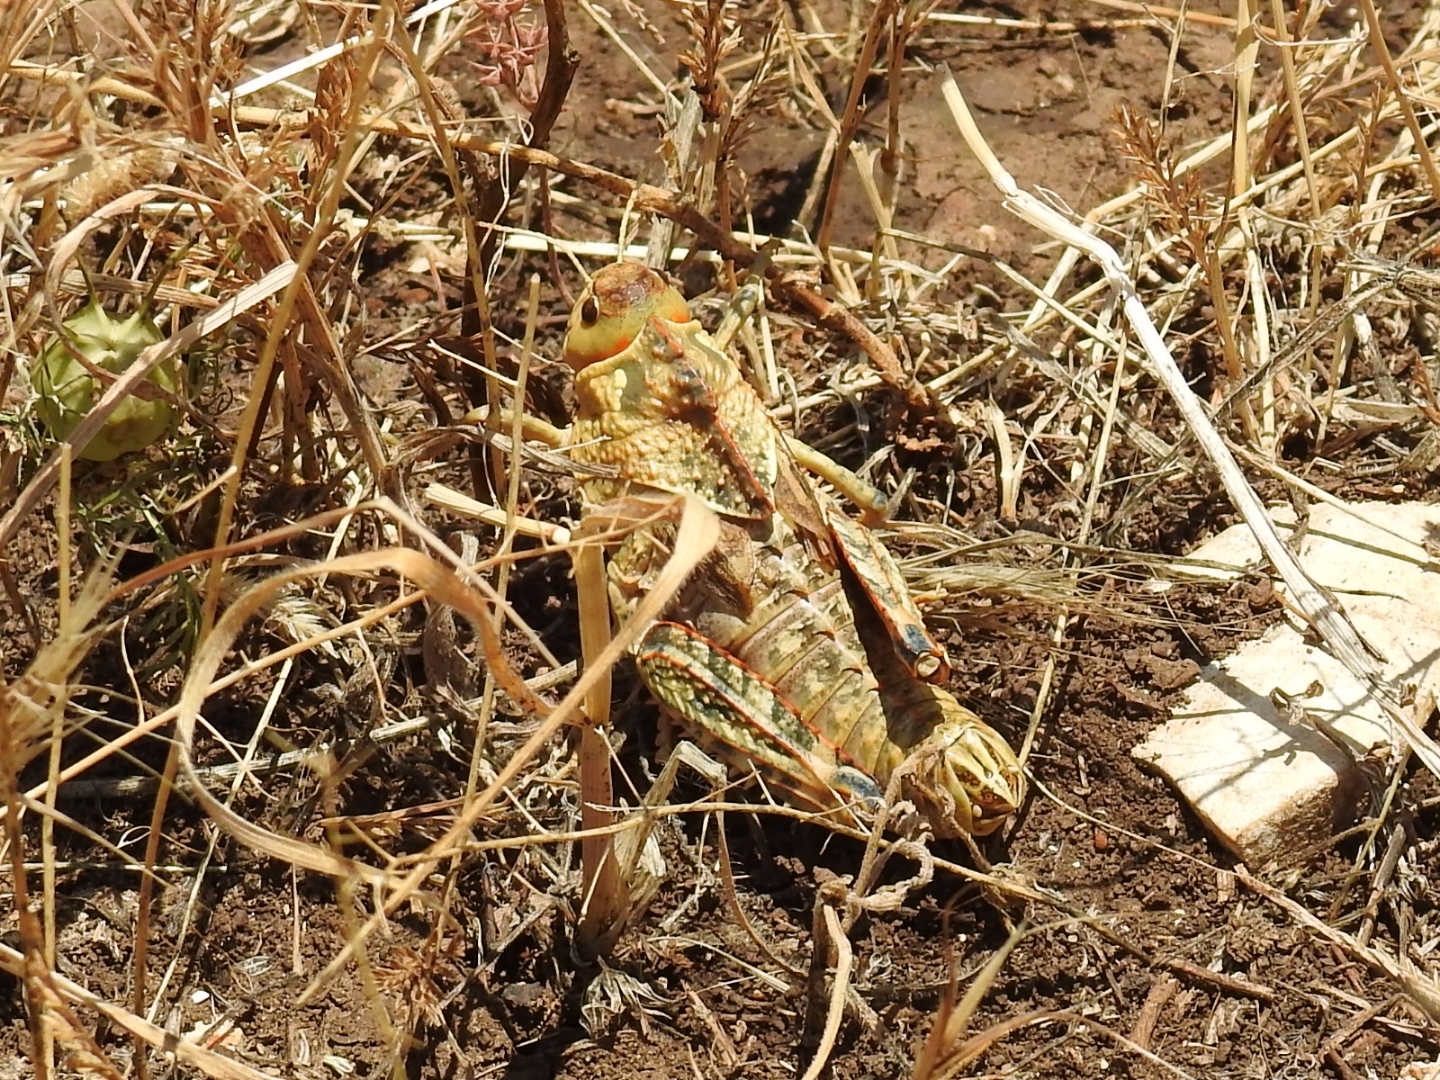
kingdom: Animalia
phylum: Arthropoda
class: Insecta
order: Orthoptera
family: Pamphagidae
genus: Prionotropis
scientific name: Prionotropis appula
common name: Apulian stone grasshopper
